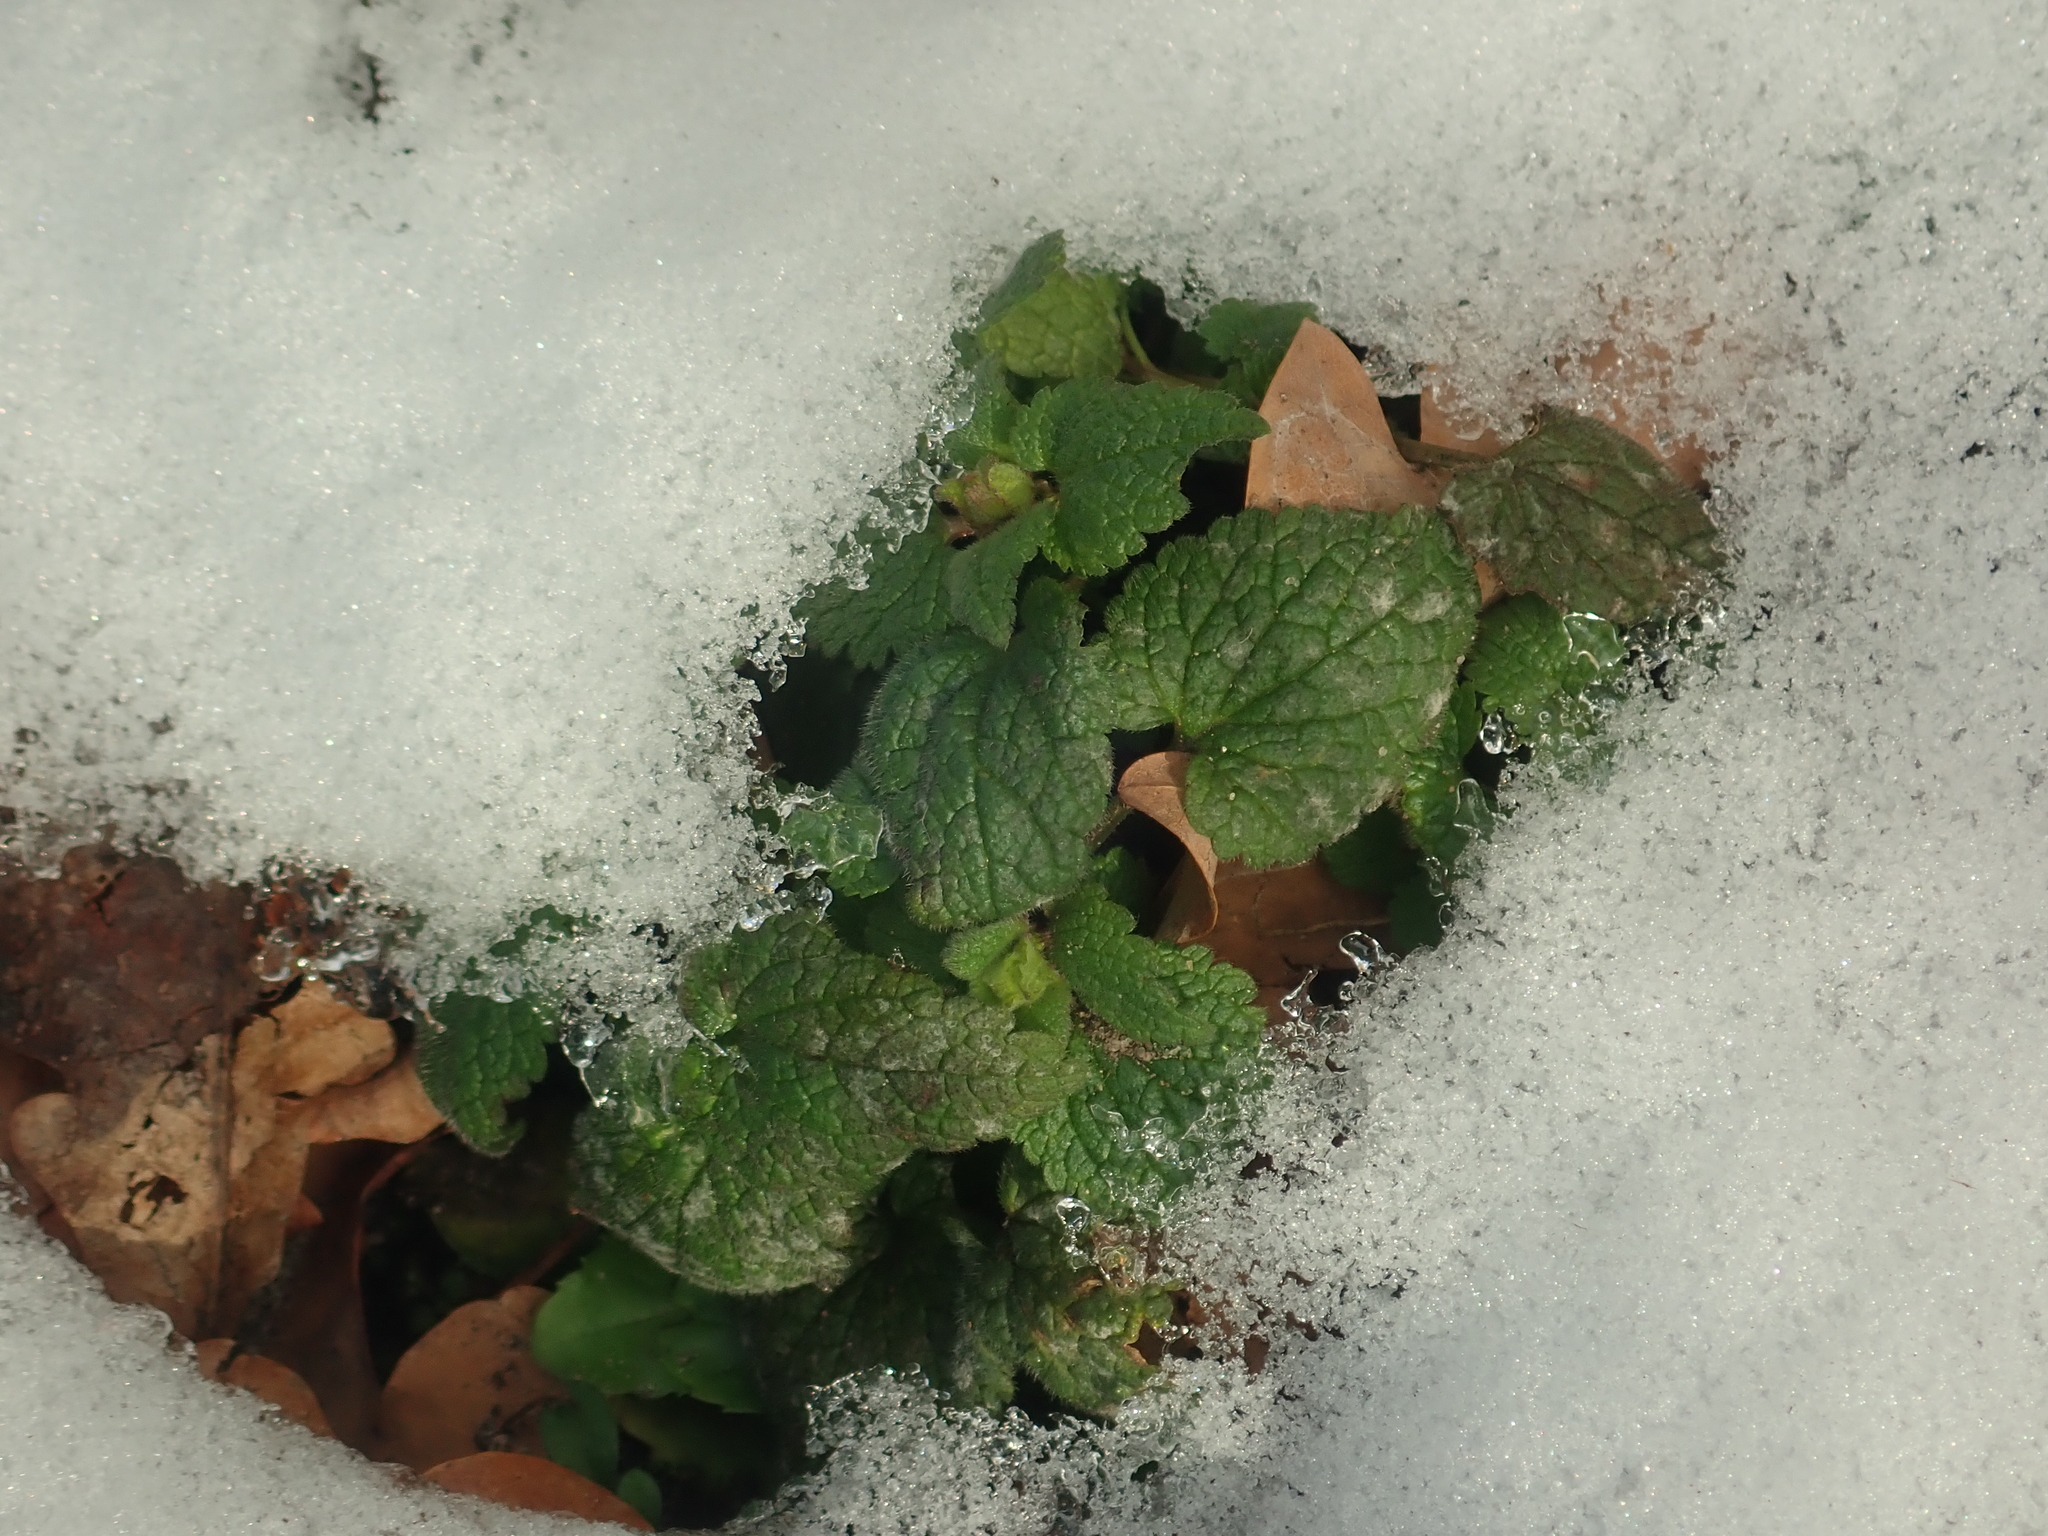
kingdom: Plantae
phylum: Tracheophyta
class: Magnoliopsida
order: Lamiales
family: Lamiaceae
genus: Lamium
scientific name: Lamium purpureum
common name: Red dead-nettle
